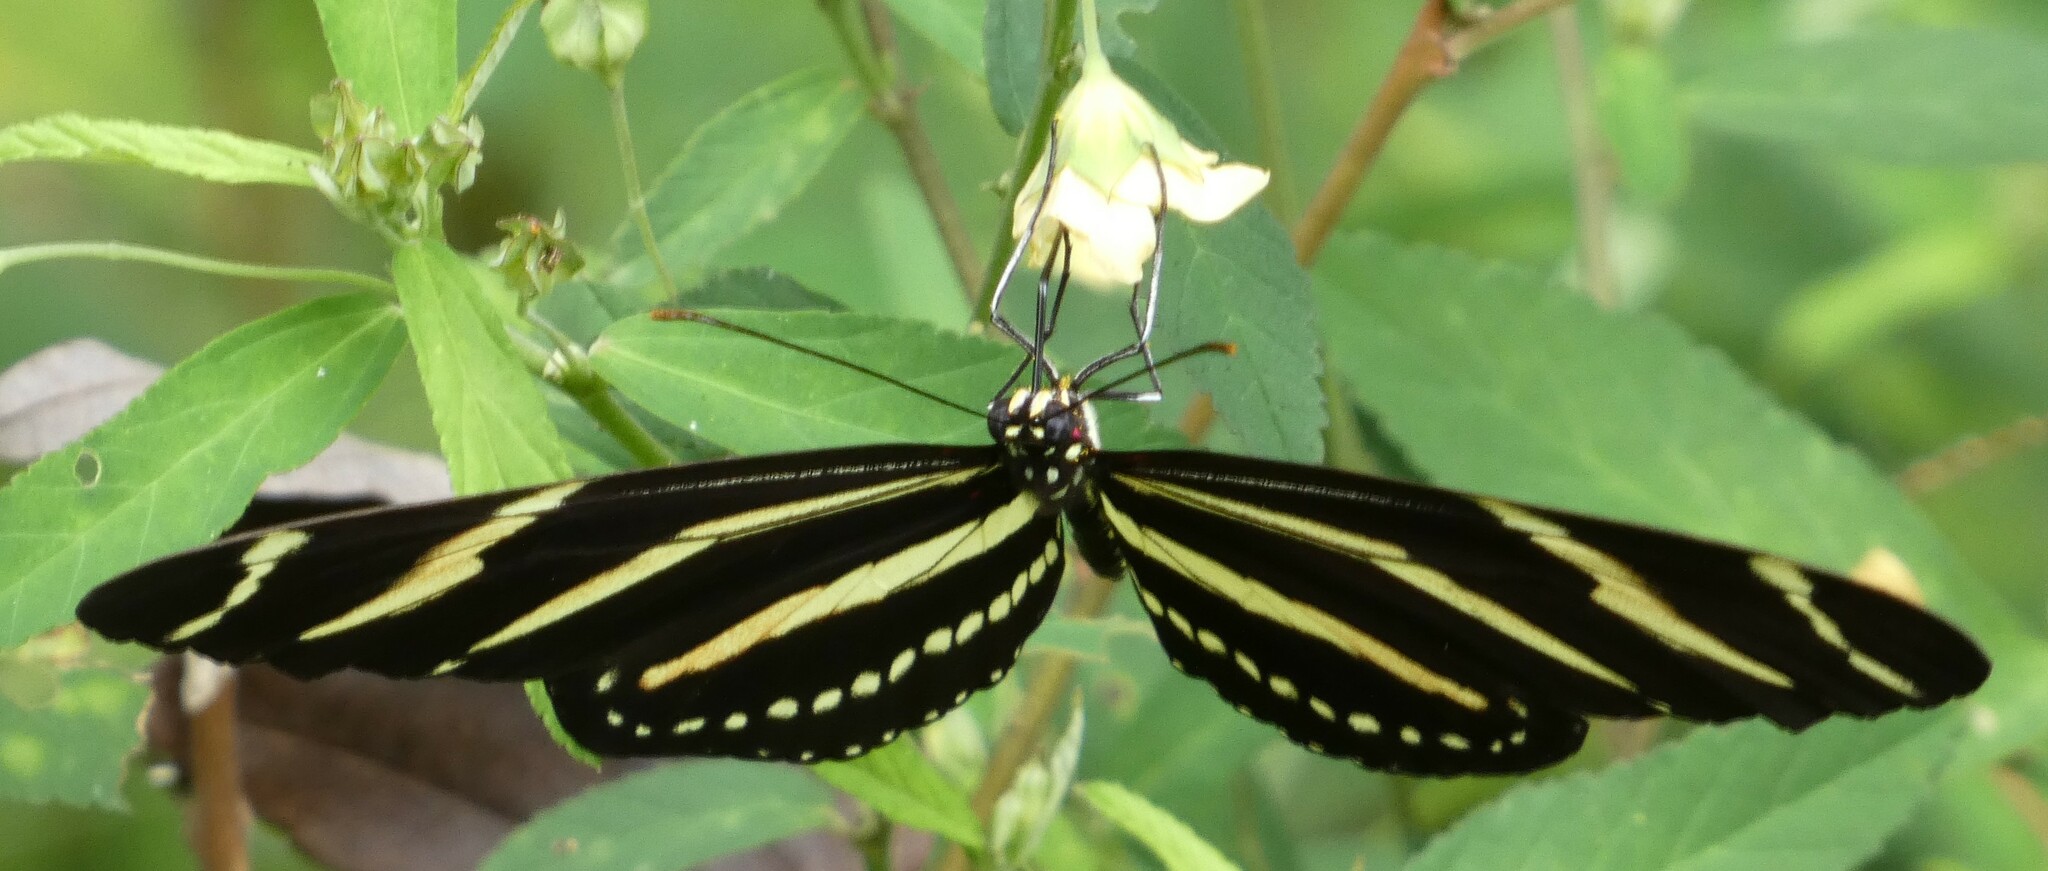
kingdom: Animalia
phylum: Arthropoda
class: Insecta
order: Lepidoptera
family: Nymphalidae
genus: Heliconius
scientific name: Heliconius charithonia
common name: Zebra long wing
